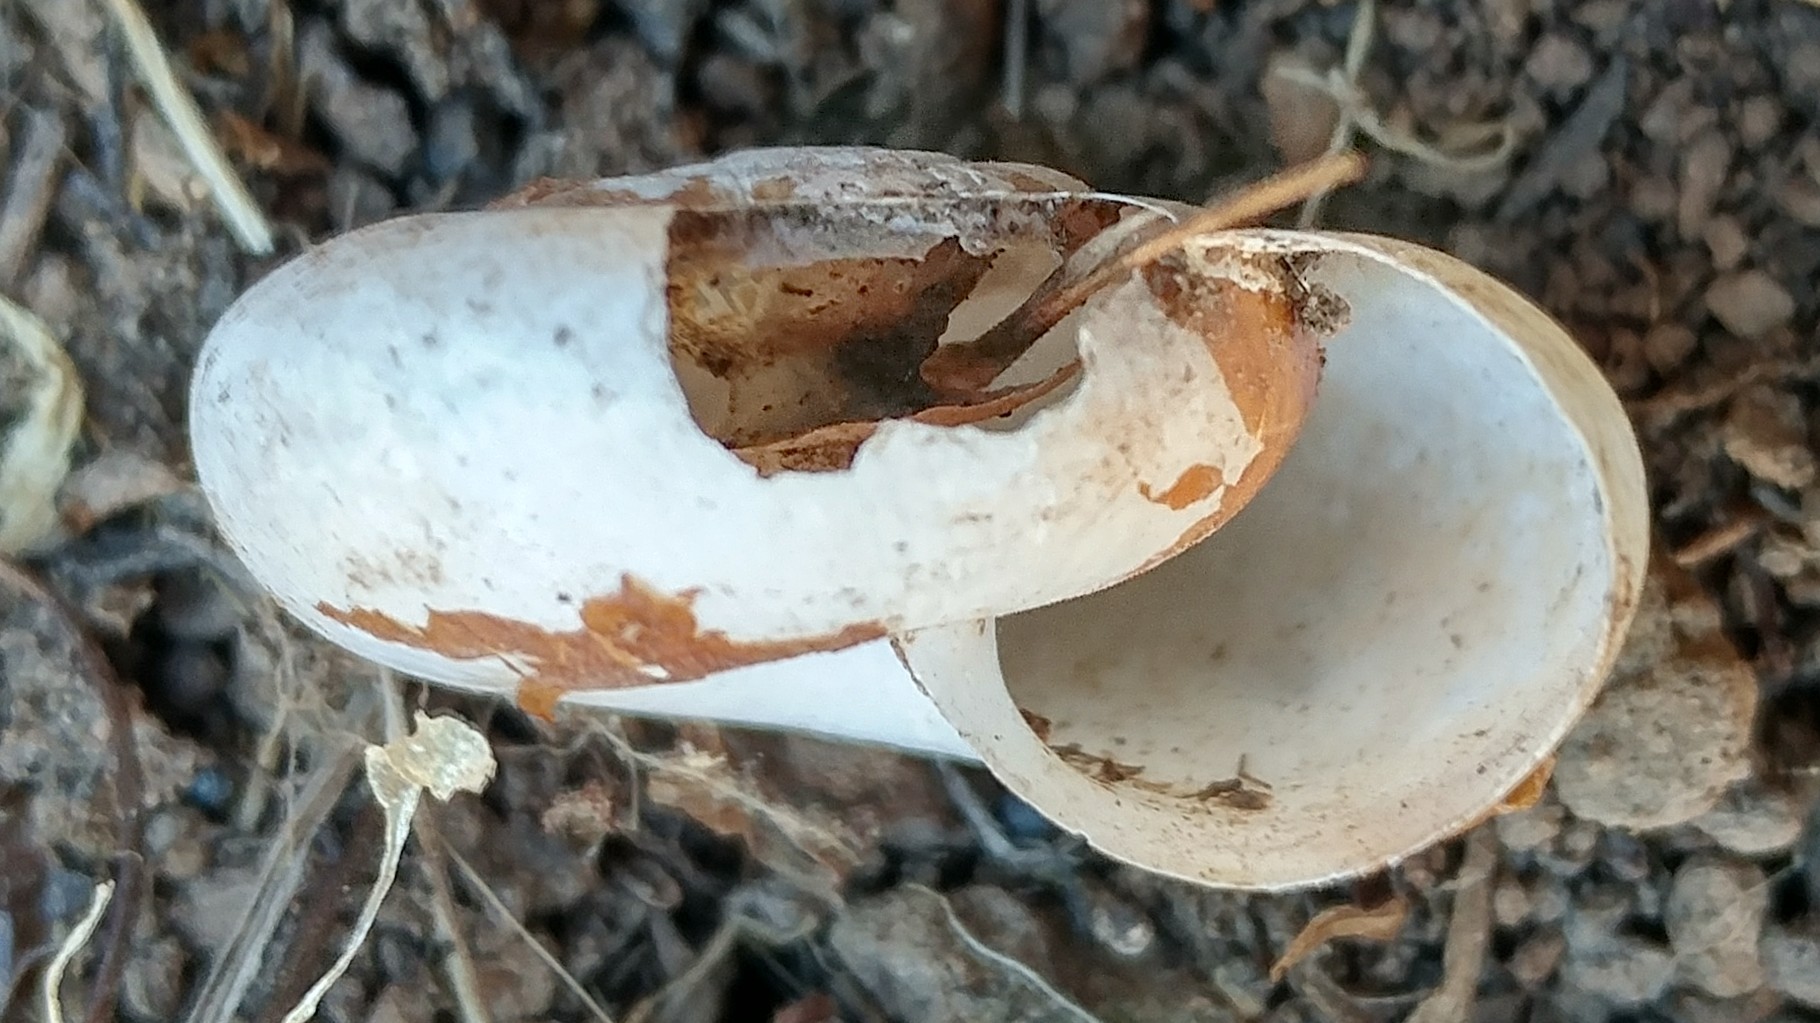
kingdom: Animalia
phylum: Mollusca
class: Gastropoda
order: Stylommatophora
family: Megomphicidae
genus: Glyptostoma
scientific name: Glyptostoma newberryanum
